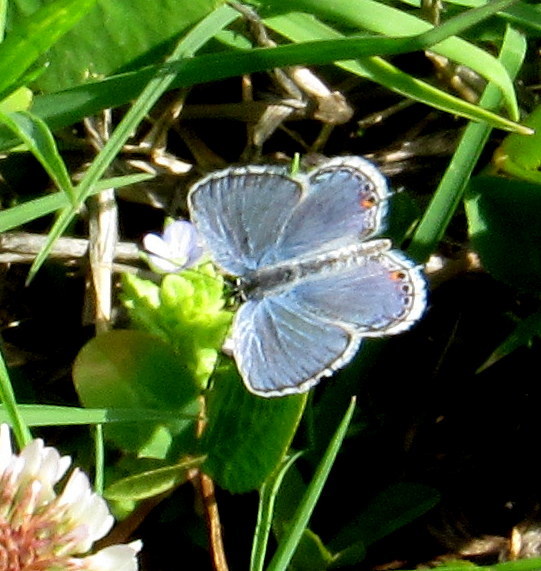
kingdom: Animalia
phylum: Arthropoda
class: Insecta
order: Lepidoptera
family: Lycaenidae
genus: Elkalyce
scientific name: Elkalyce comyntas
